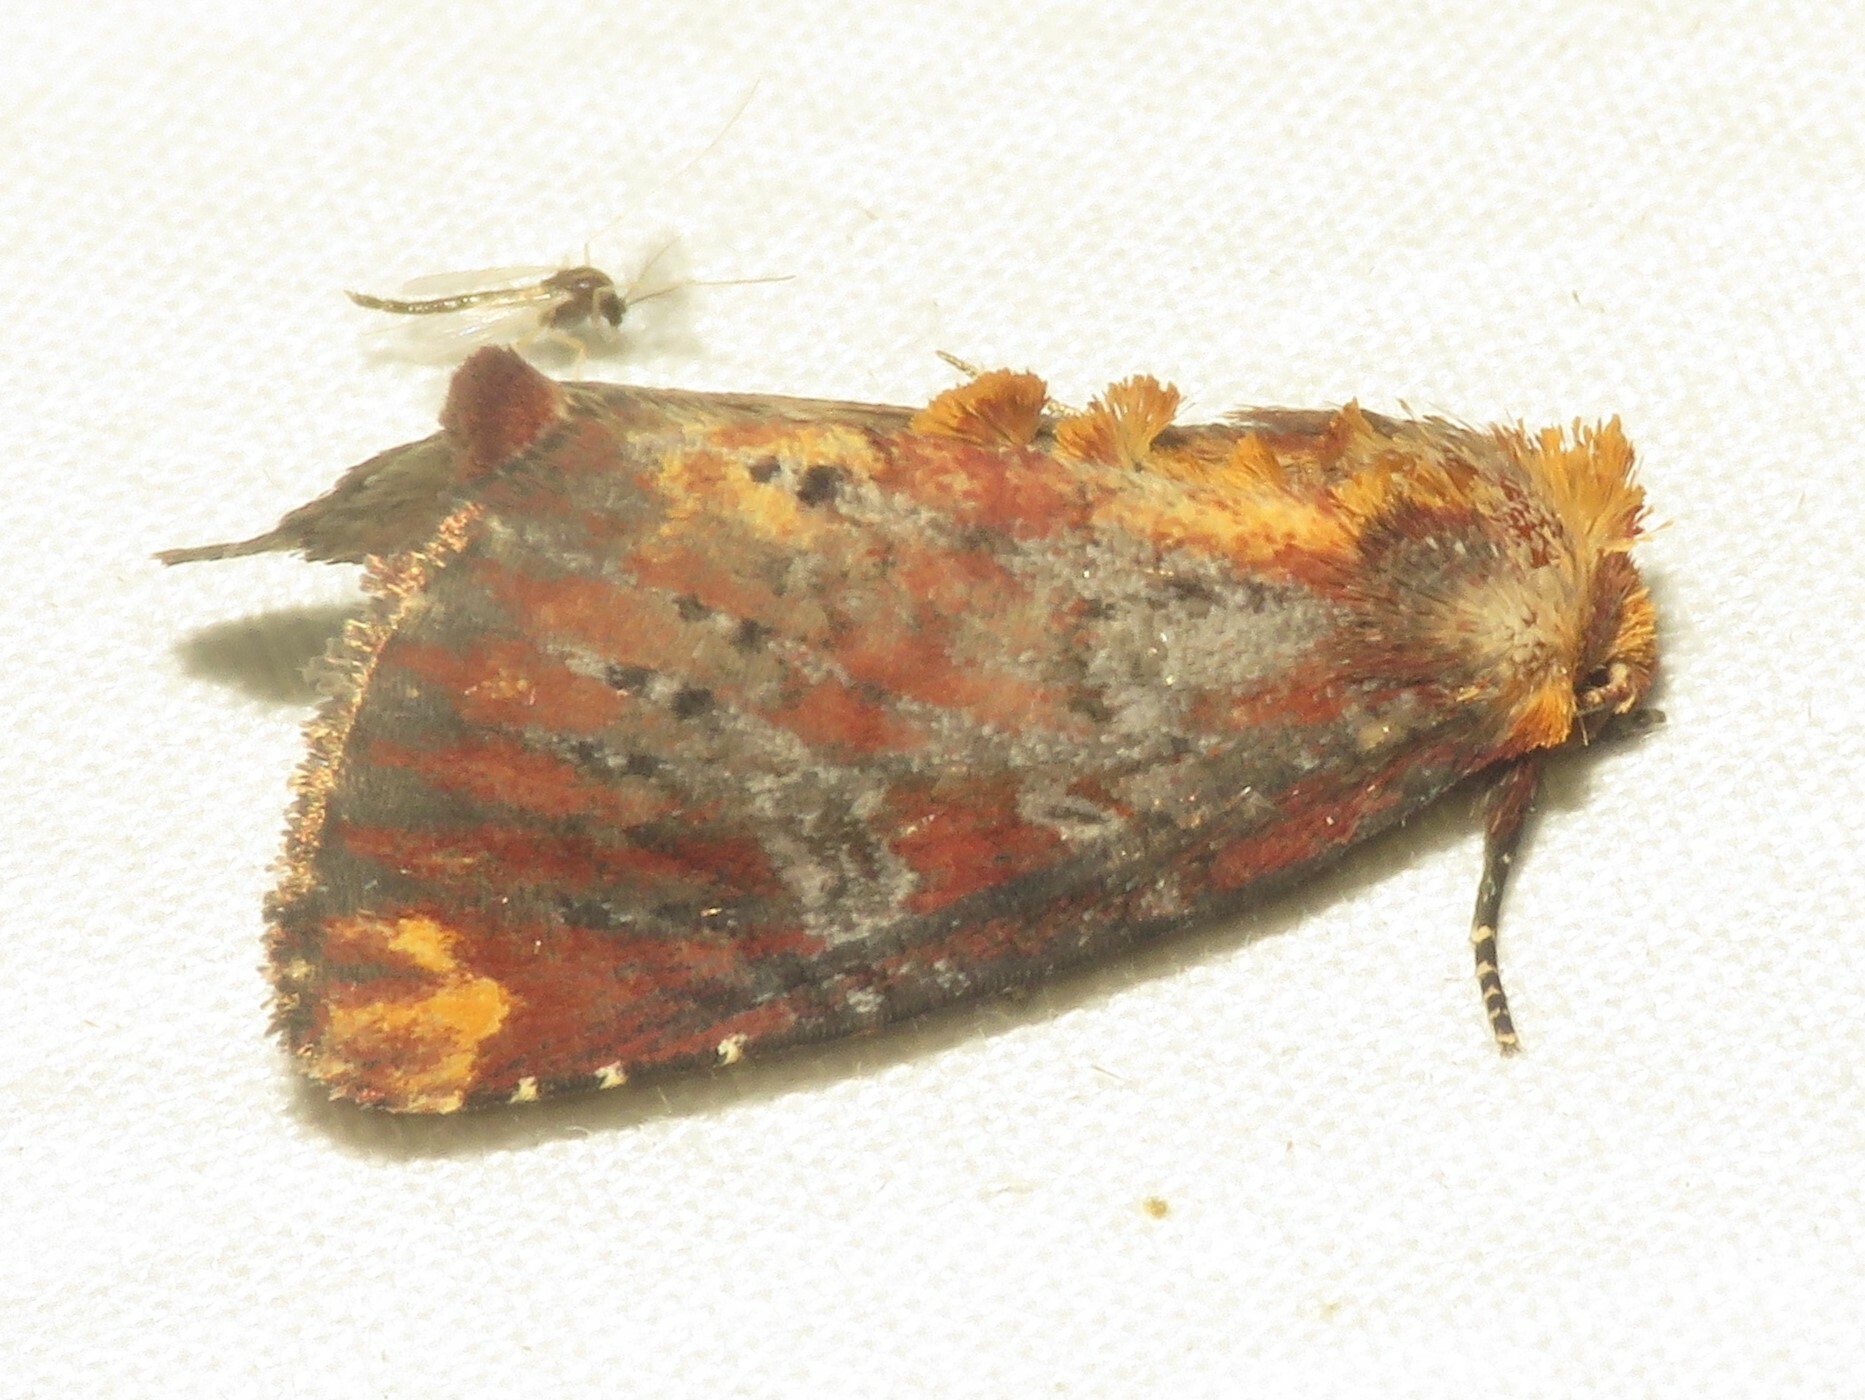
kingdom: Animalia
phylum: Arthropoda
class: Insecta
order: Lepidoptera
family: Noctuidae
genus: Achatodes
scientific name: Achatodes zeae
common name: Elder shoot borer
